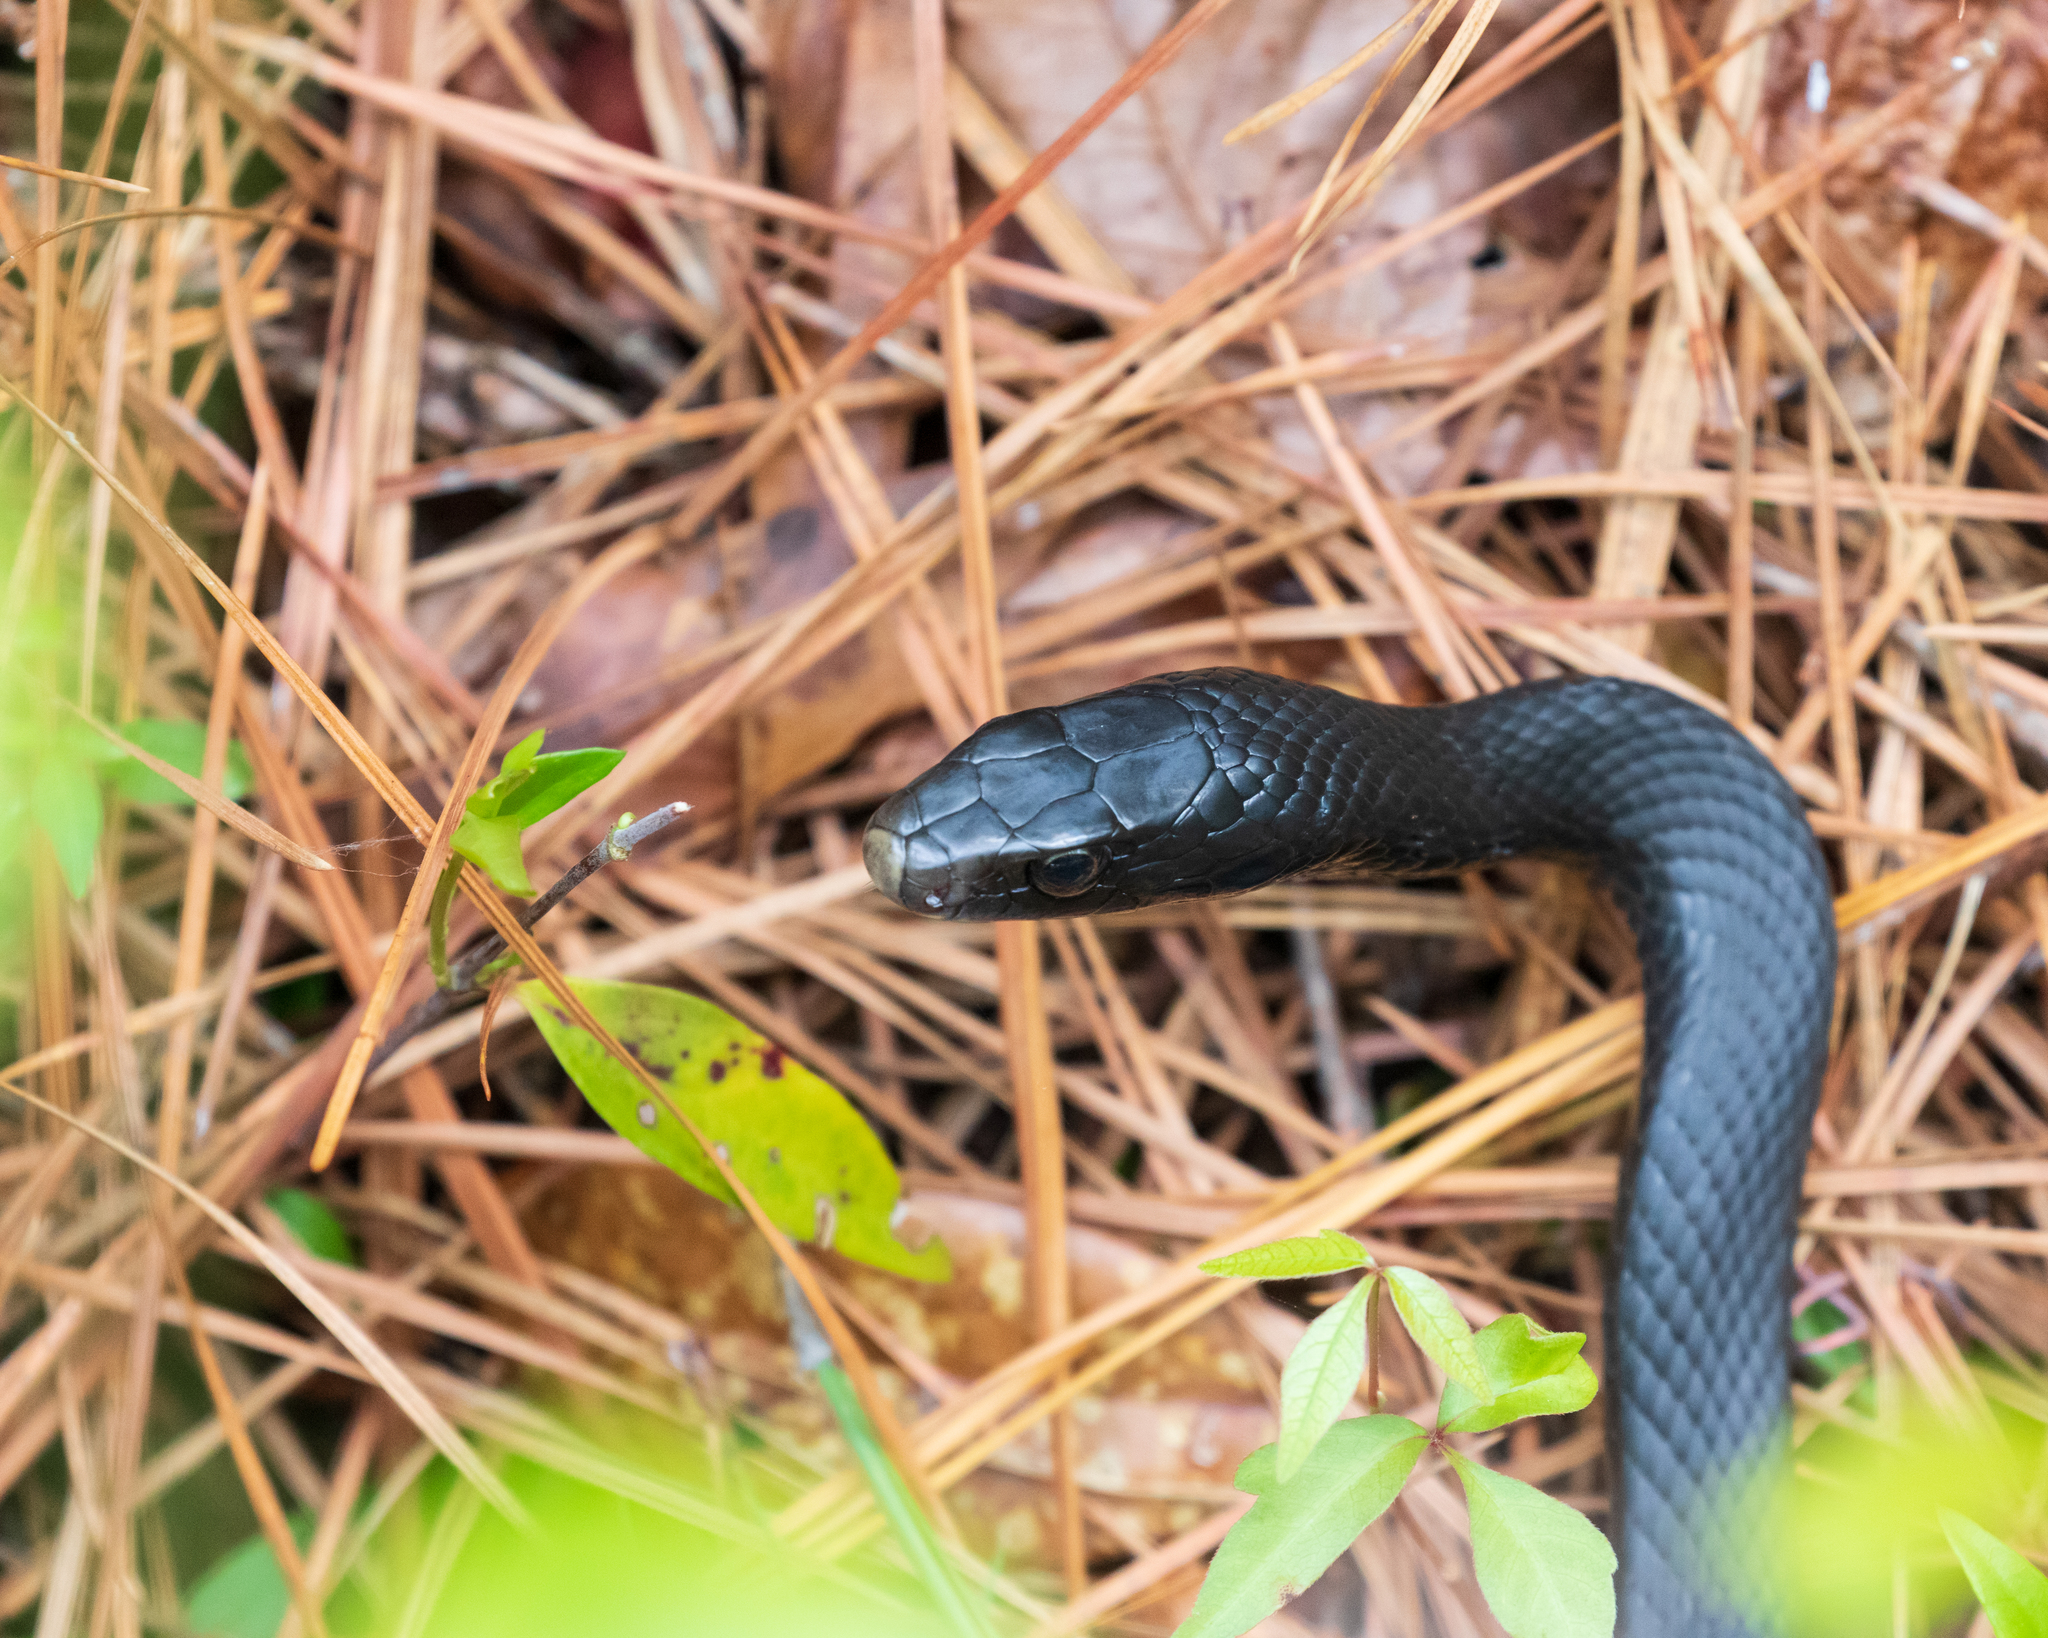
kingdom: Animalia
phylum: Chordata
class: Squamata
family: Colubridae
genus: Coluber
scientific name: Coluber constrictor
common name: Eastern racer
